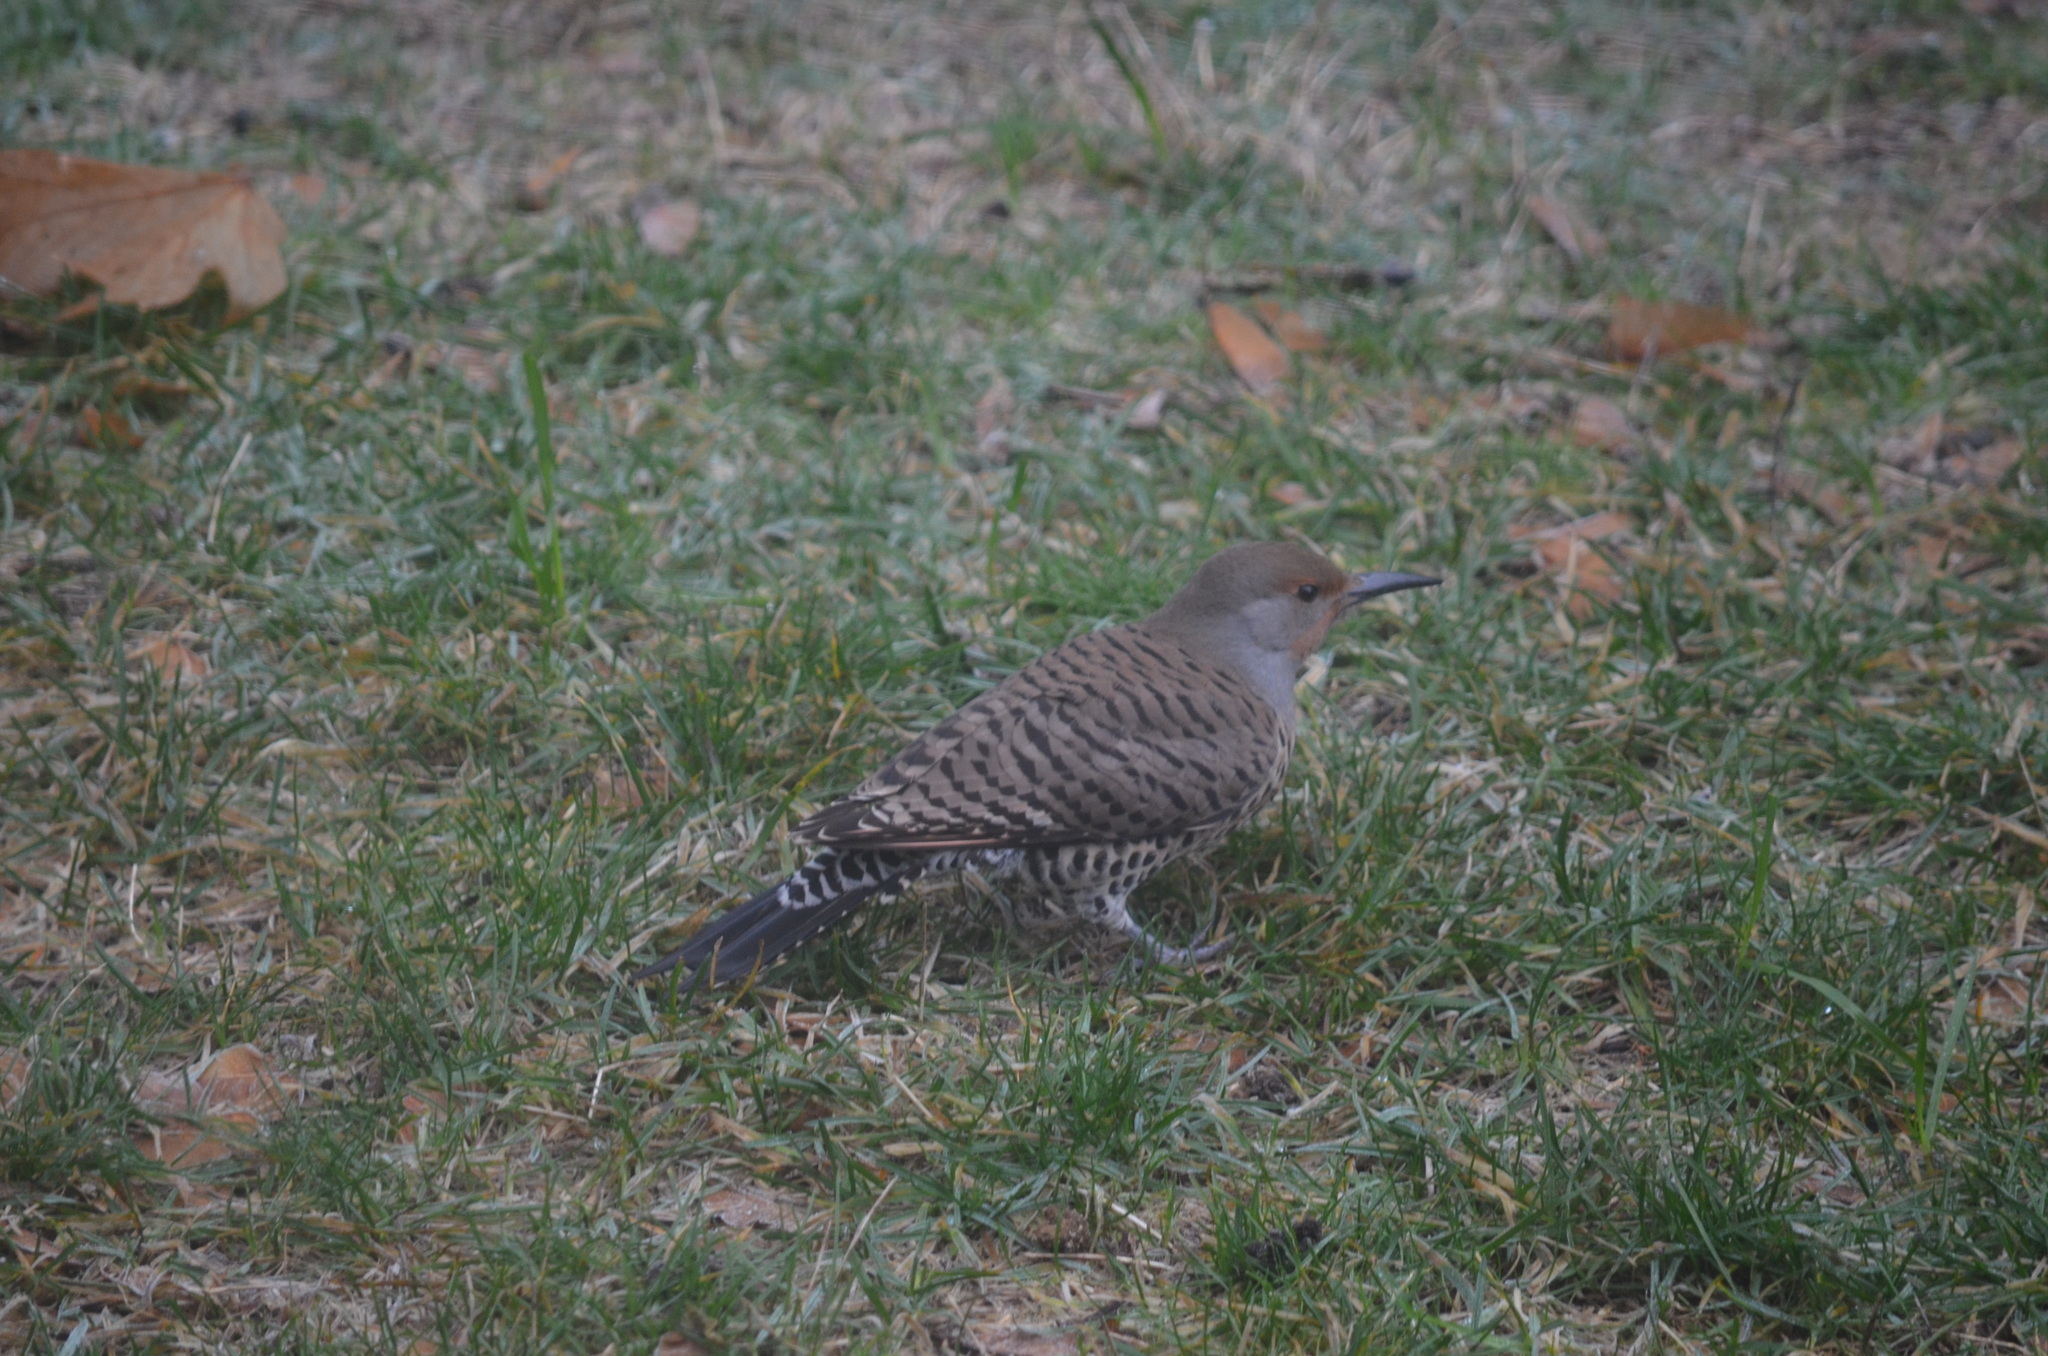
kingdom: Animalia
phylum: Chordata
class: Aves
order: Piciformes
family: Picidae
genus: Colaptes
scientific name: Colaptes auratus
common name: Northern flicker
